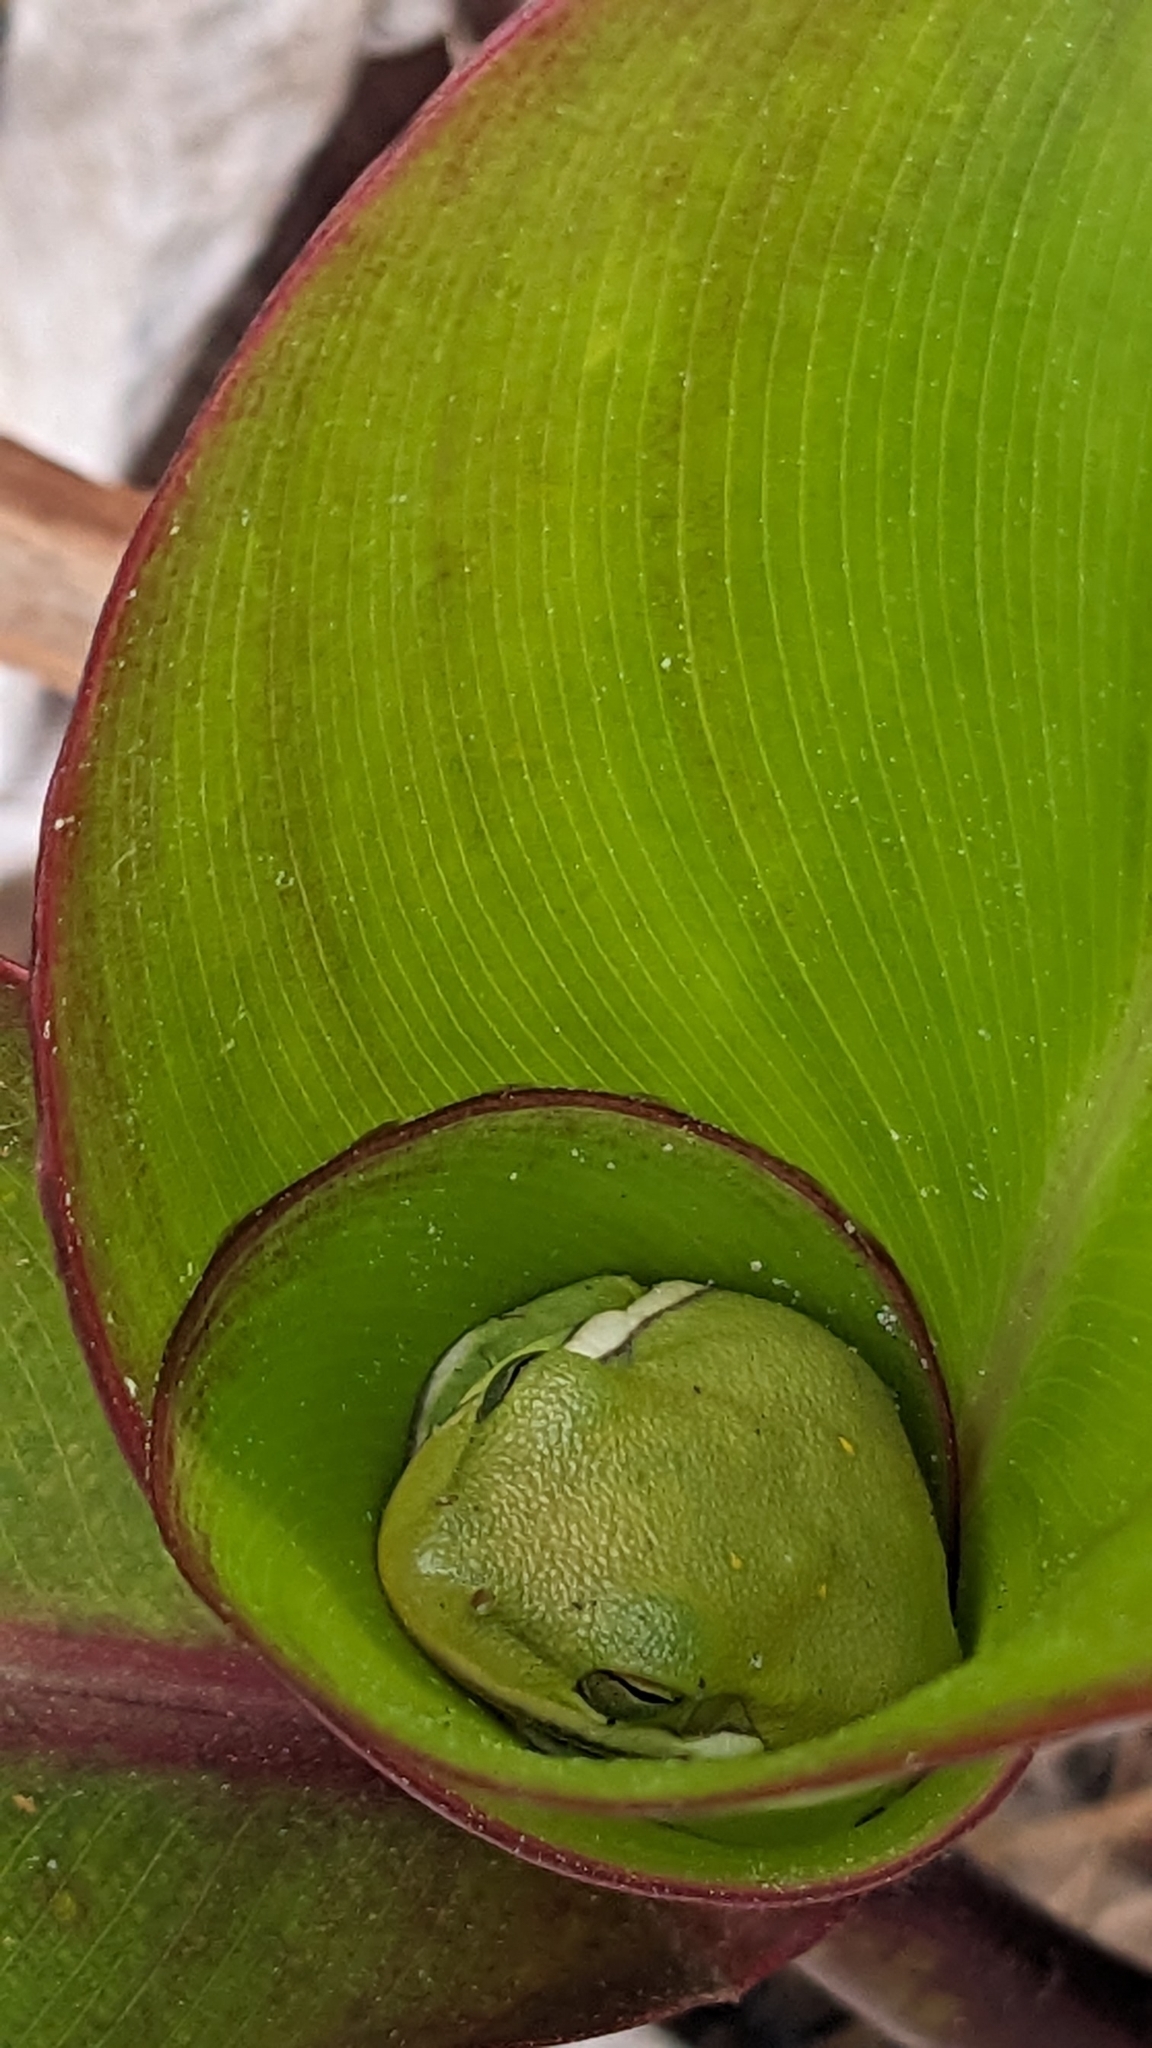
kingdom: Animalia
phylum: Chordata
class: Amphibia
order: Anura
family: Hylidae
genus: Dryophytes
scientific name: Dryophytes cinereus
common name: Green treefrog
